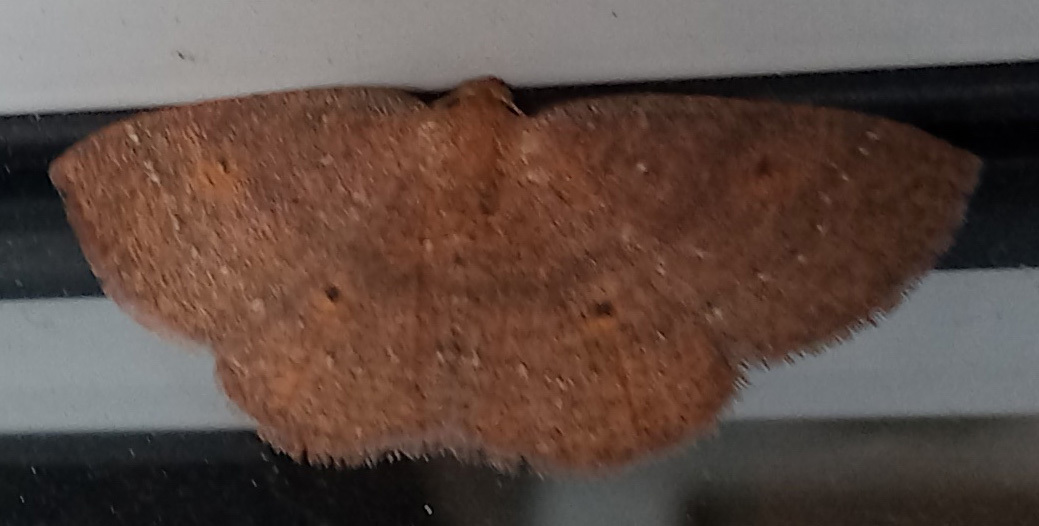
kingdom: Animalia
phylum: Arthropoda
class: Insecta
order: Lepidoptera
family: Geometridae
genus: Ilexia
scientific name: Ilexia intractata
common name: Black-dotted ruddy moth
